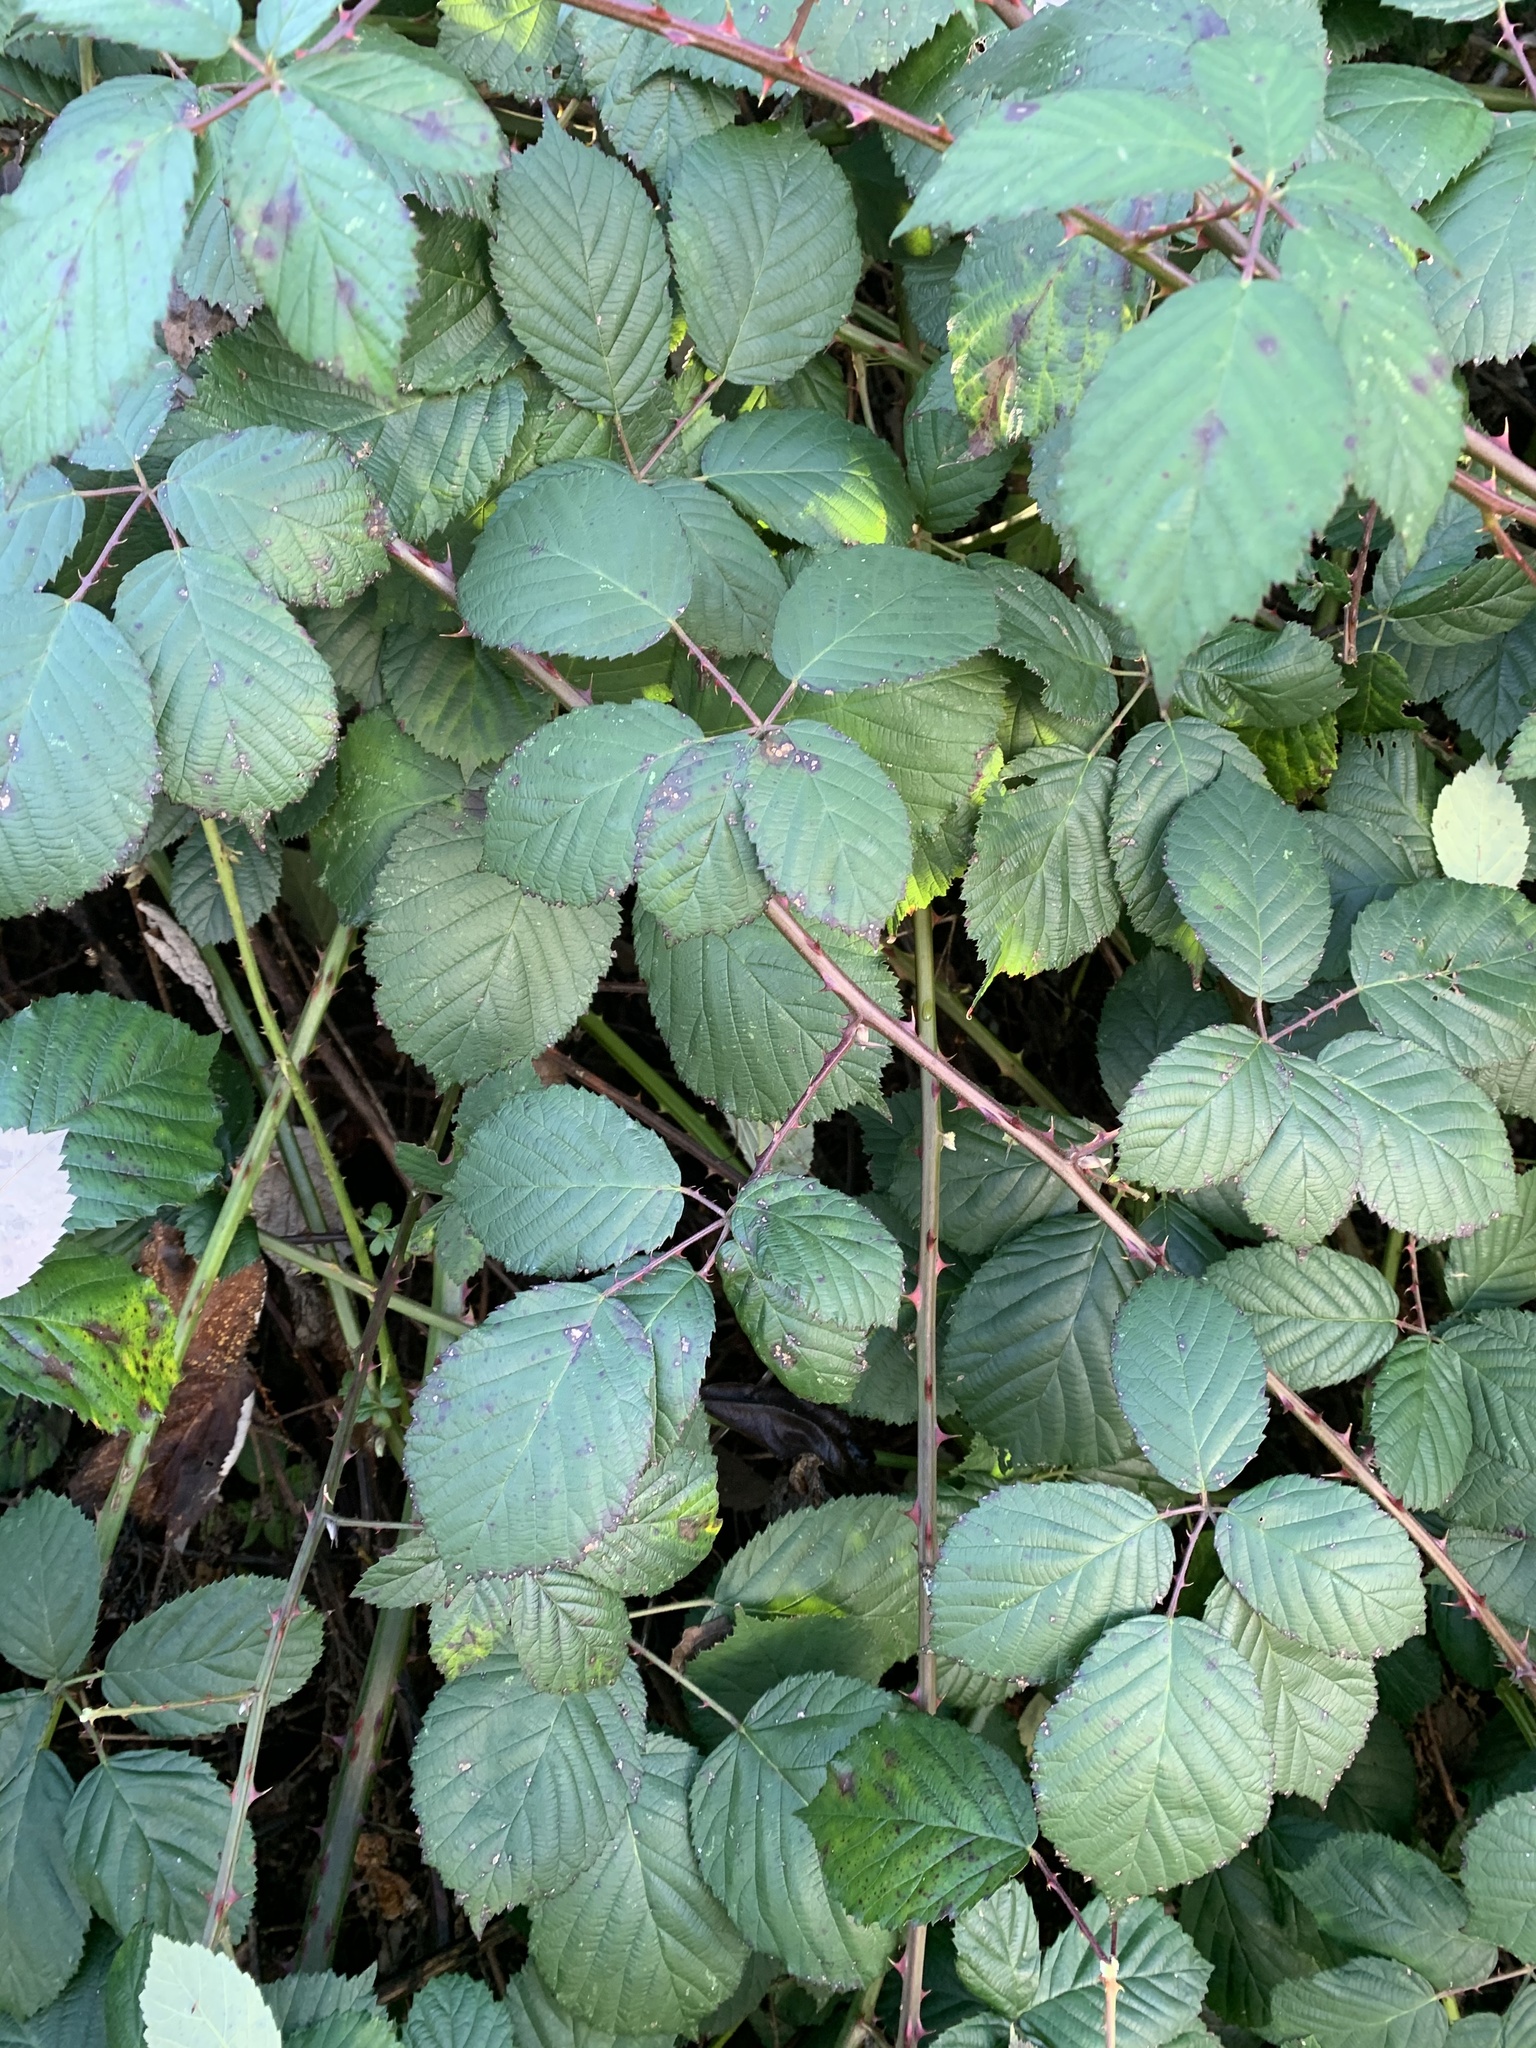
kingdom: Plantae
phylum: Tracheophyta
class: Magnoliopsida
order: Rosales
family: Rosaceae
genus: Rubus
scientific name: Rubus bifrons
